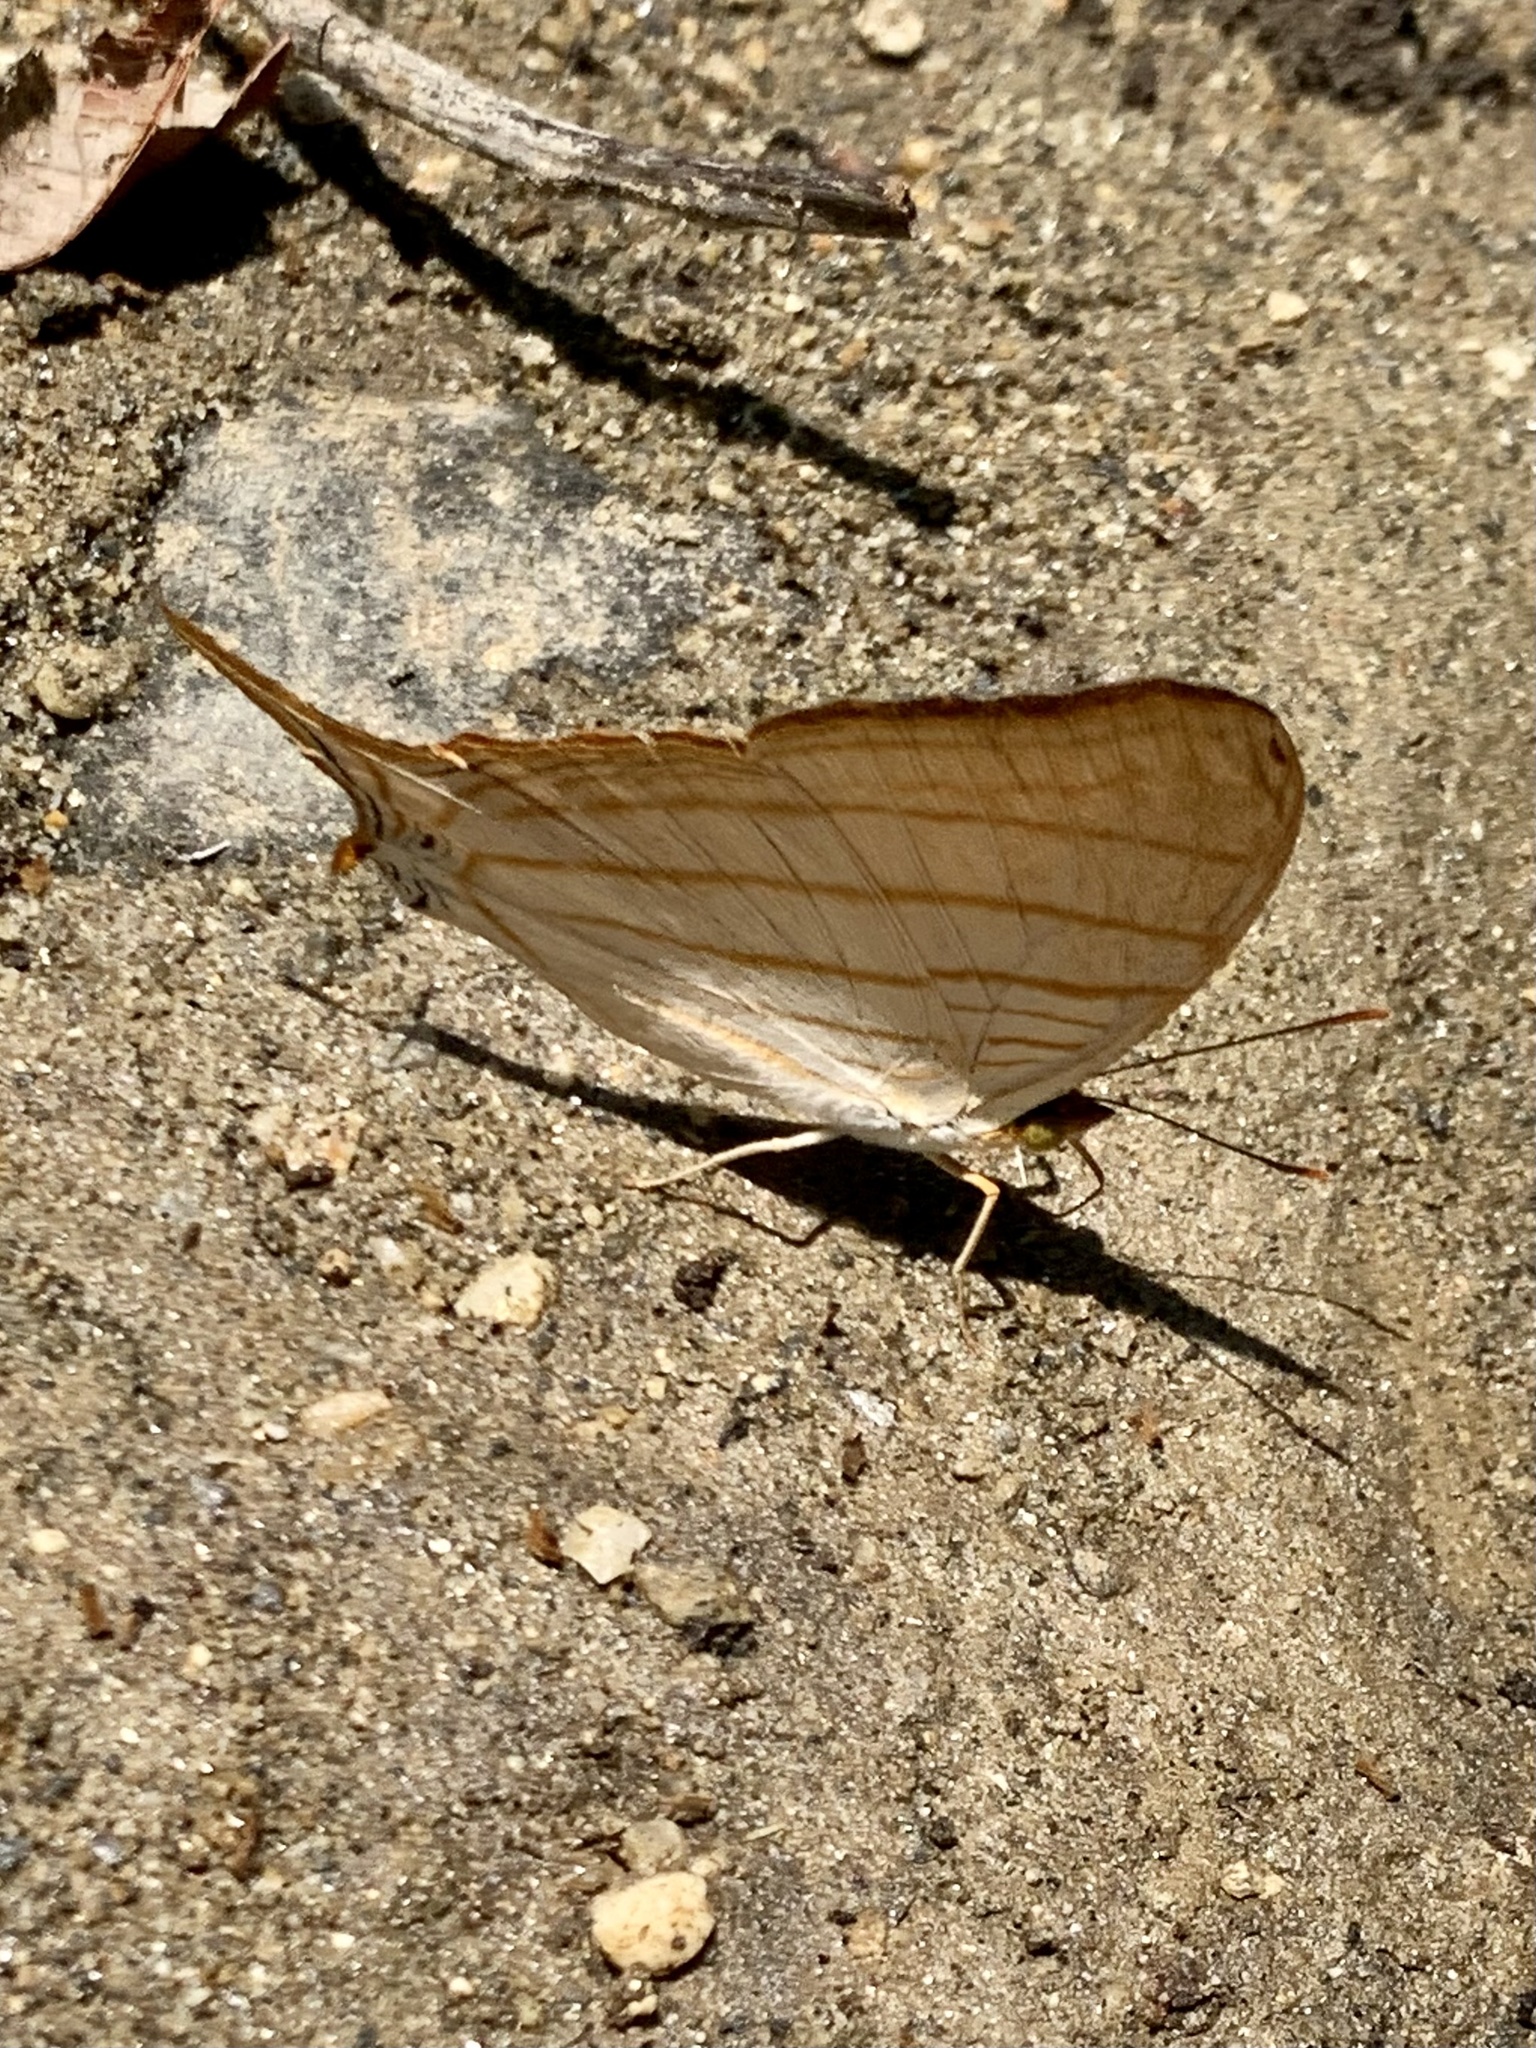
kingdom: Animalia
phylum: Arthropoda
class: Insecta
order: Lepidoptera
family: Nymphalidae
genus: Marpesia
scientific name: Marpesia berania
